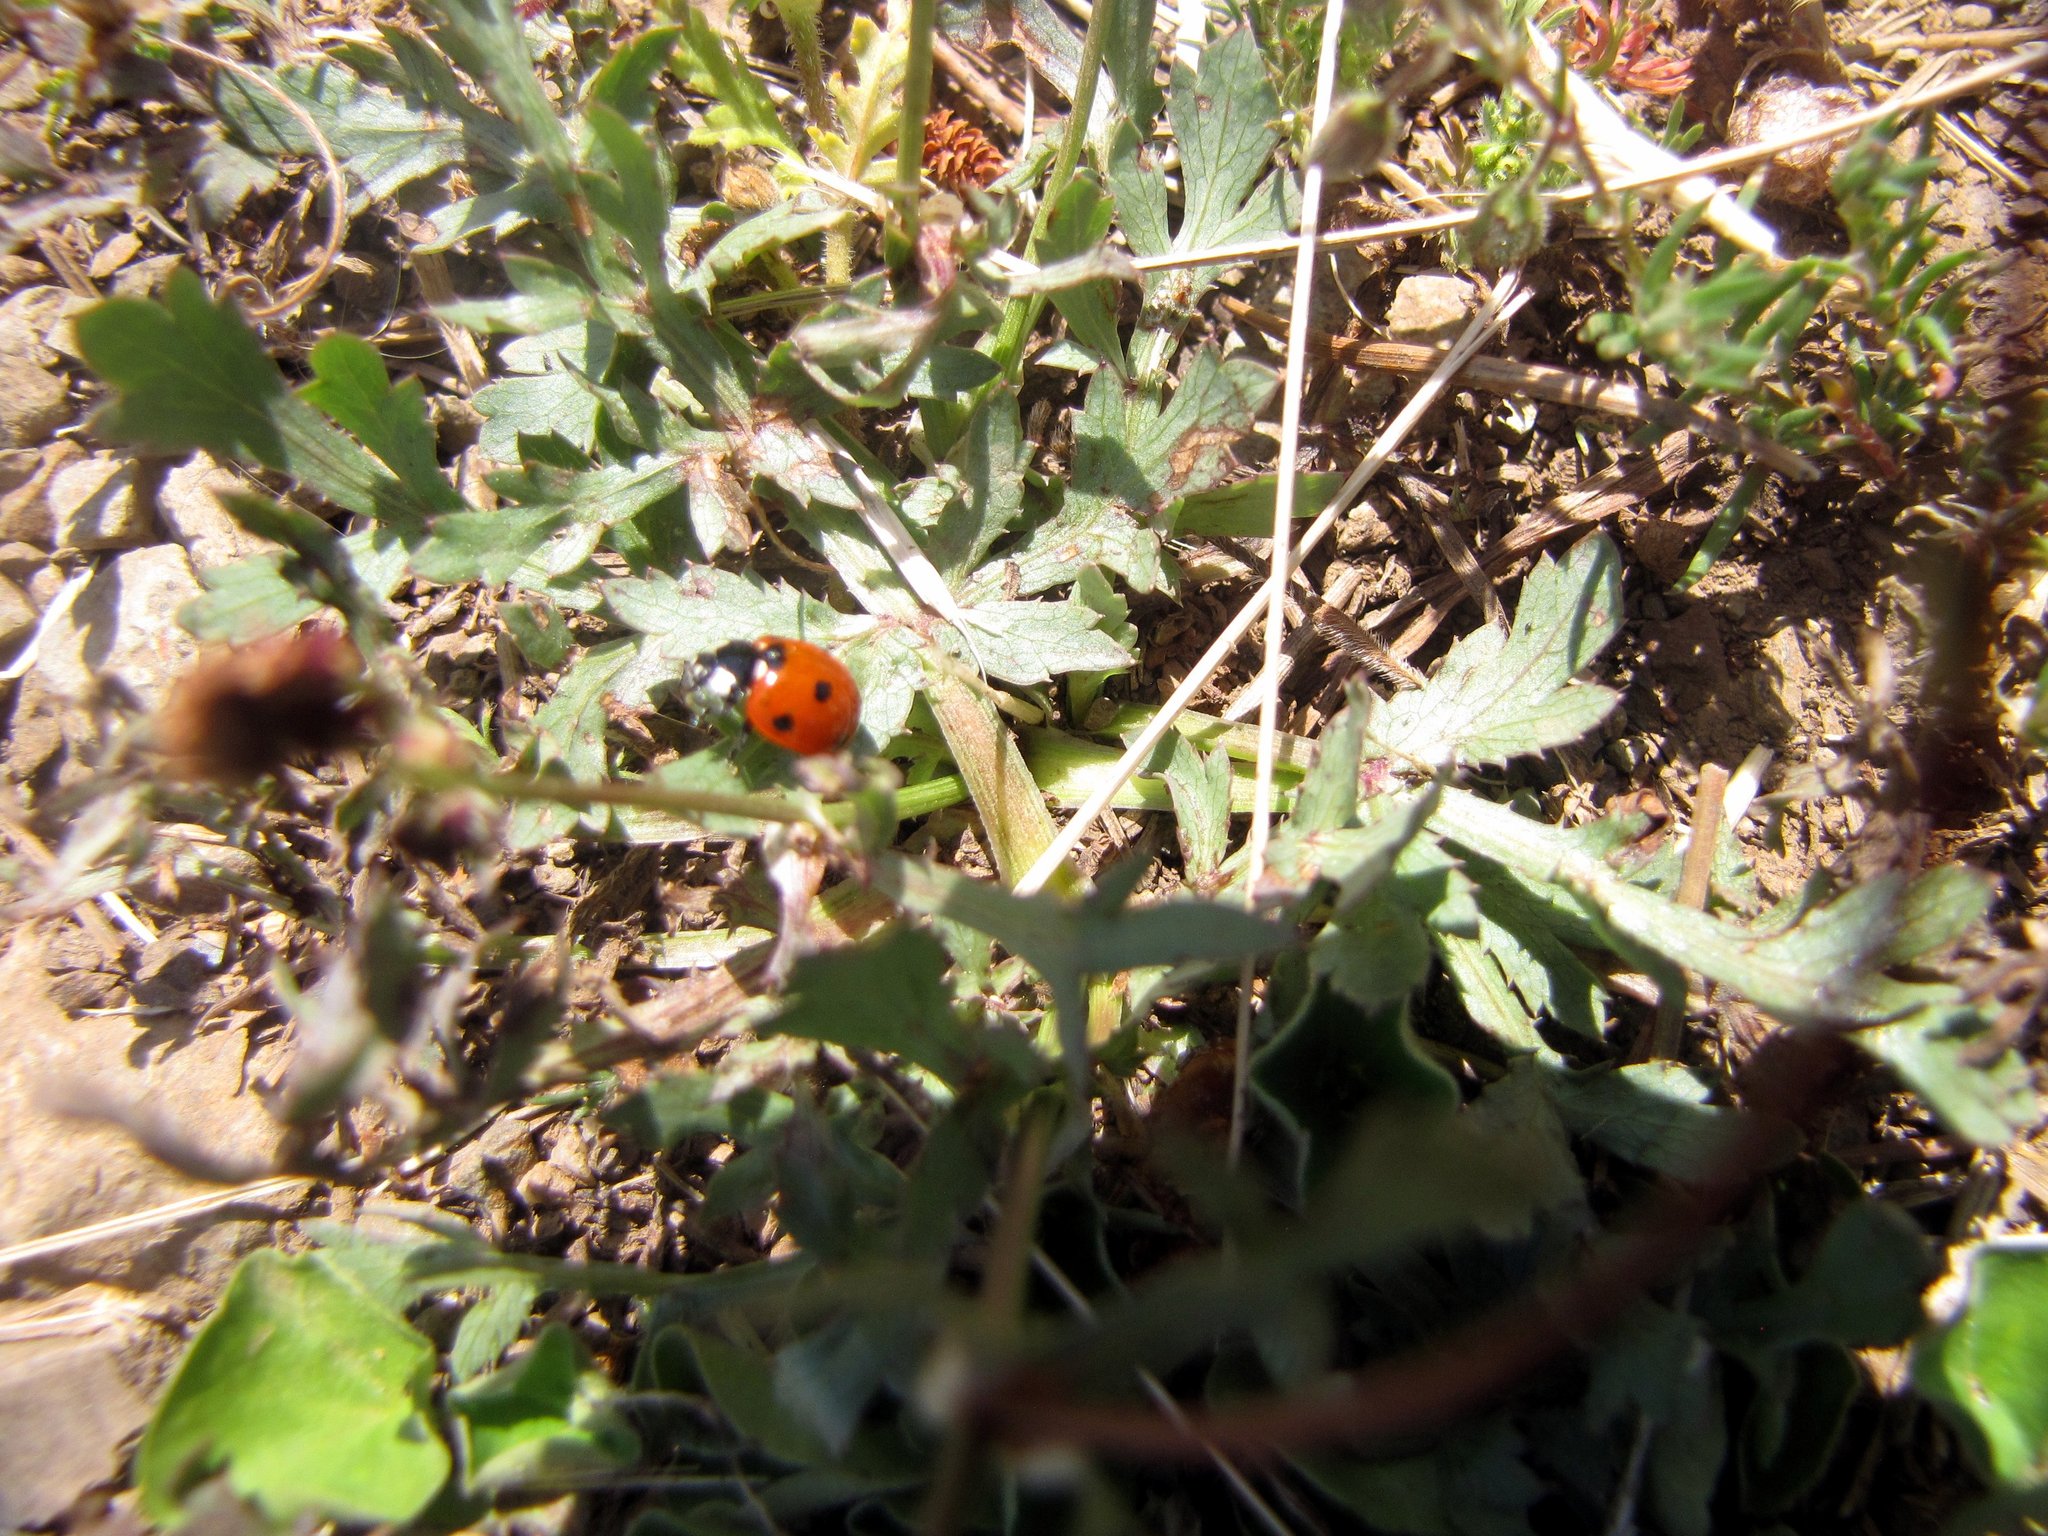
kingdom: Animalia
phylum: Arthropoda
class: Insecta
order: Coleoptera
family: Coccinellidae
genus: Coccinella
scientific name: Coccinella septempunctata
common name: Sevenspotted lady beetle
